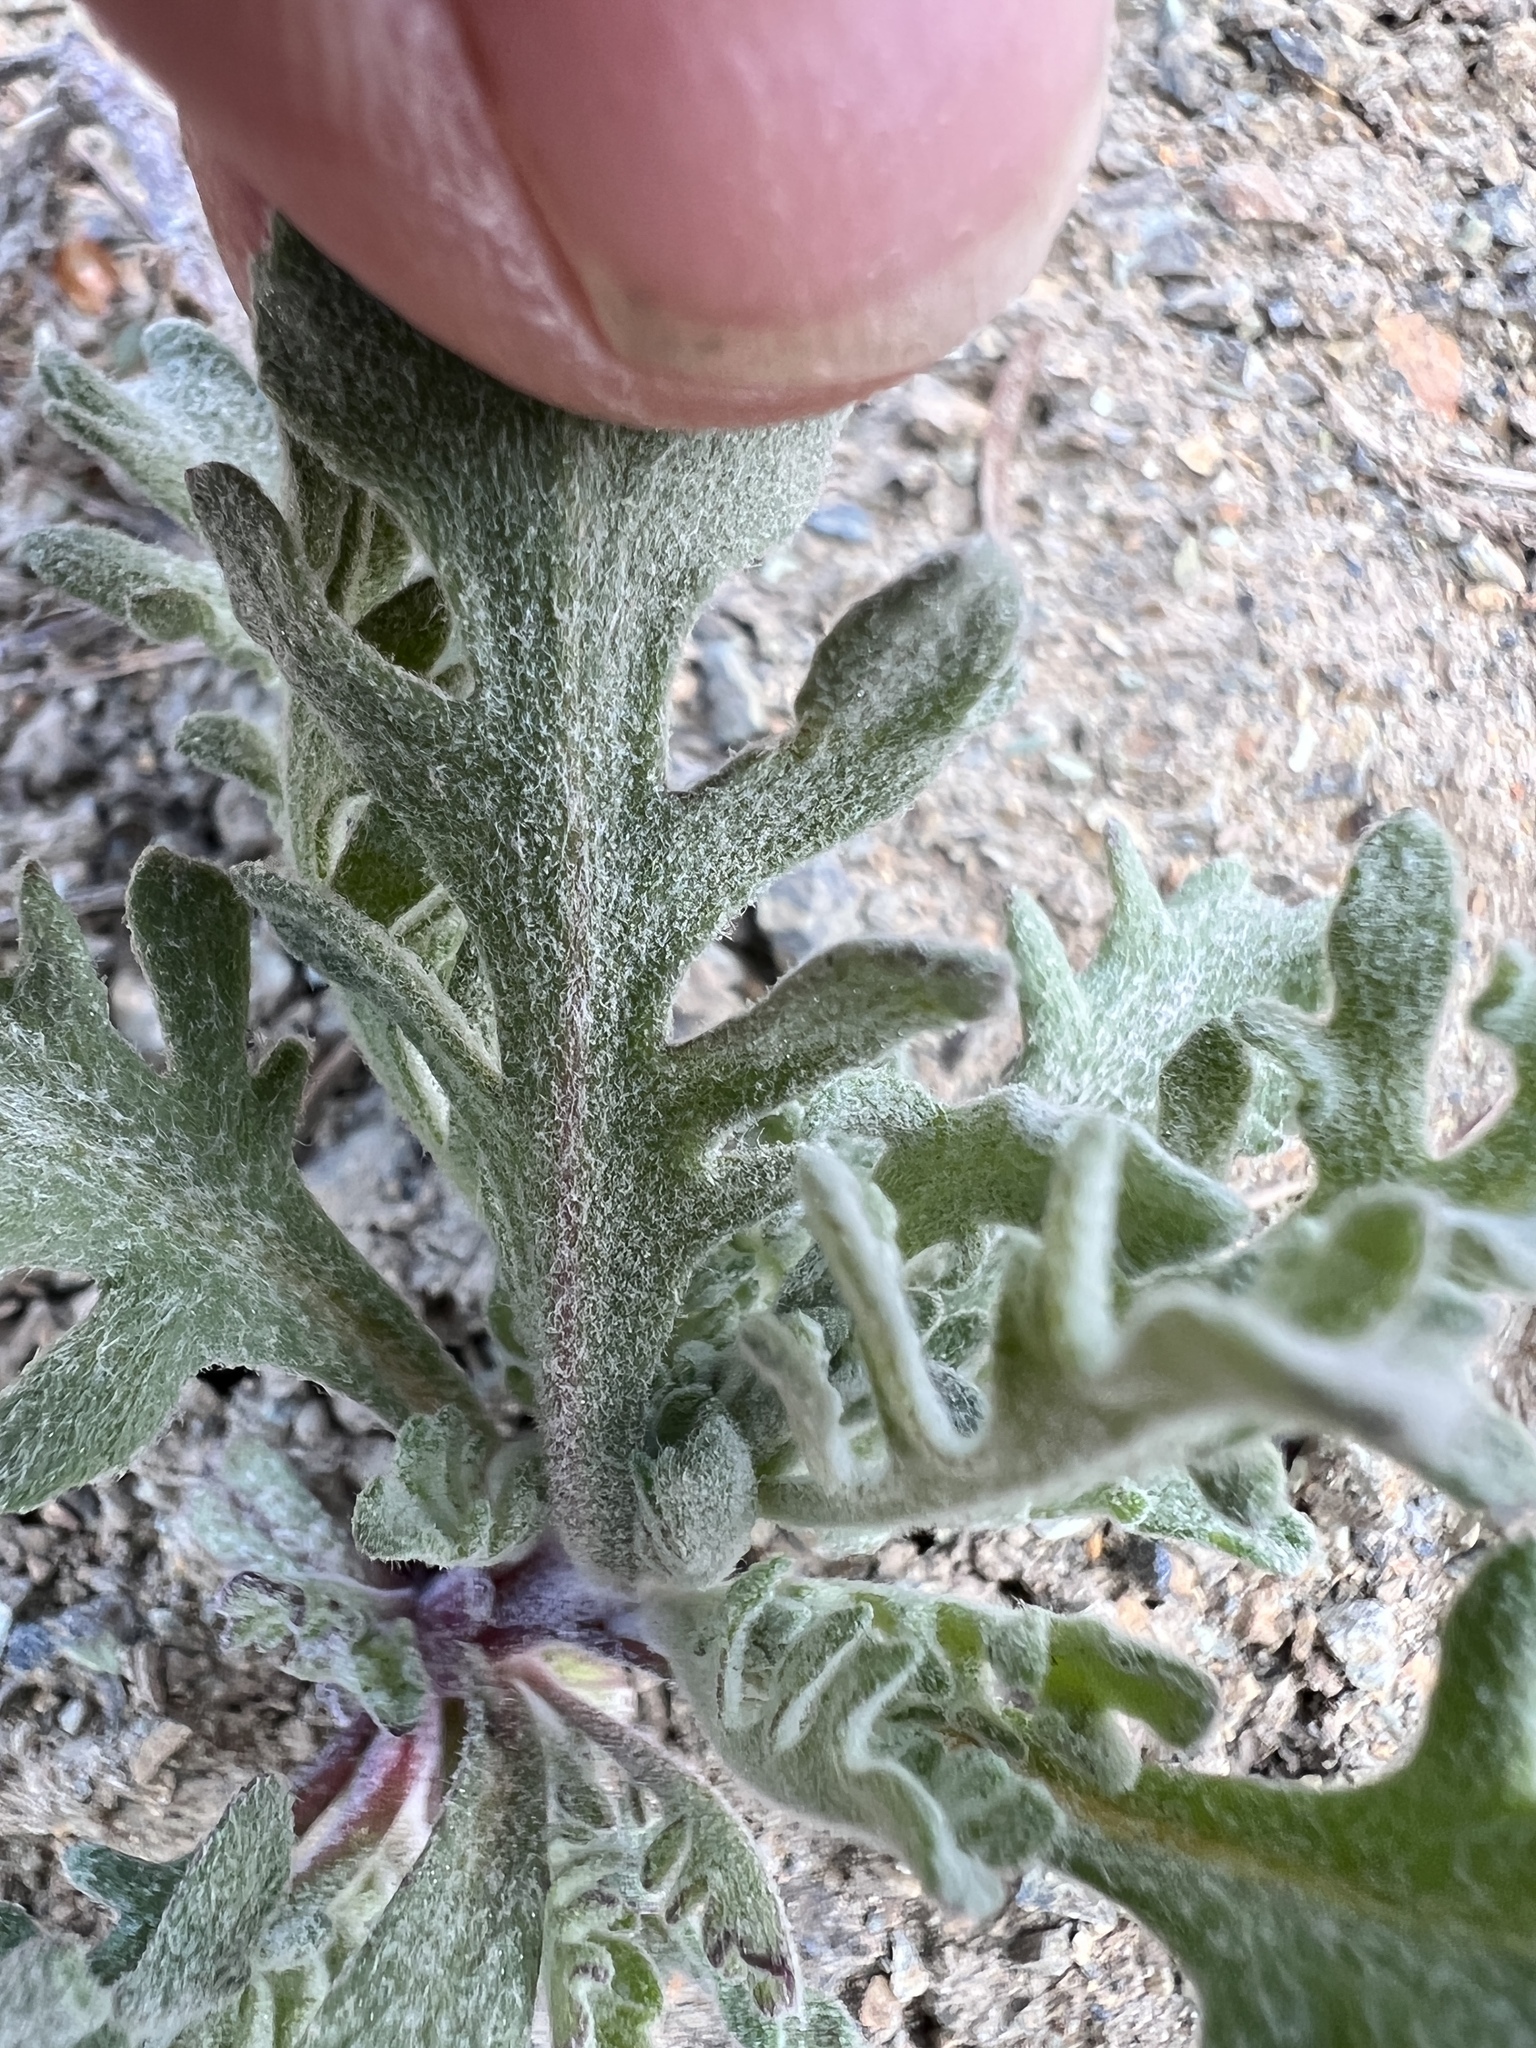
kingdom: Plantae
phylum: Tracheophyta
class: Magnoliopsida
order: Asterales
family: Asteraceae
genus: Chaenactis
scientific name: Chaenactis thompsonii
